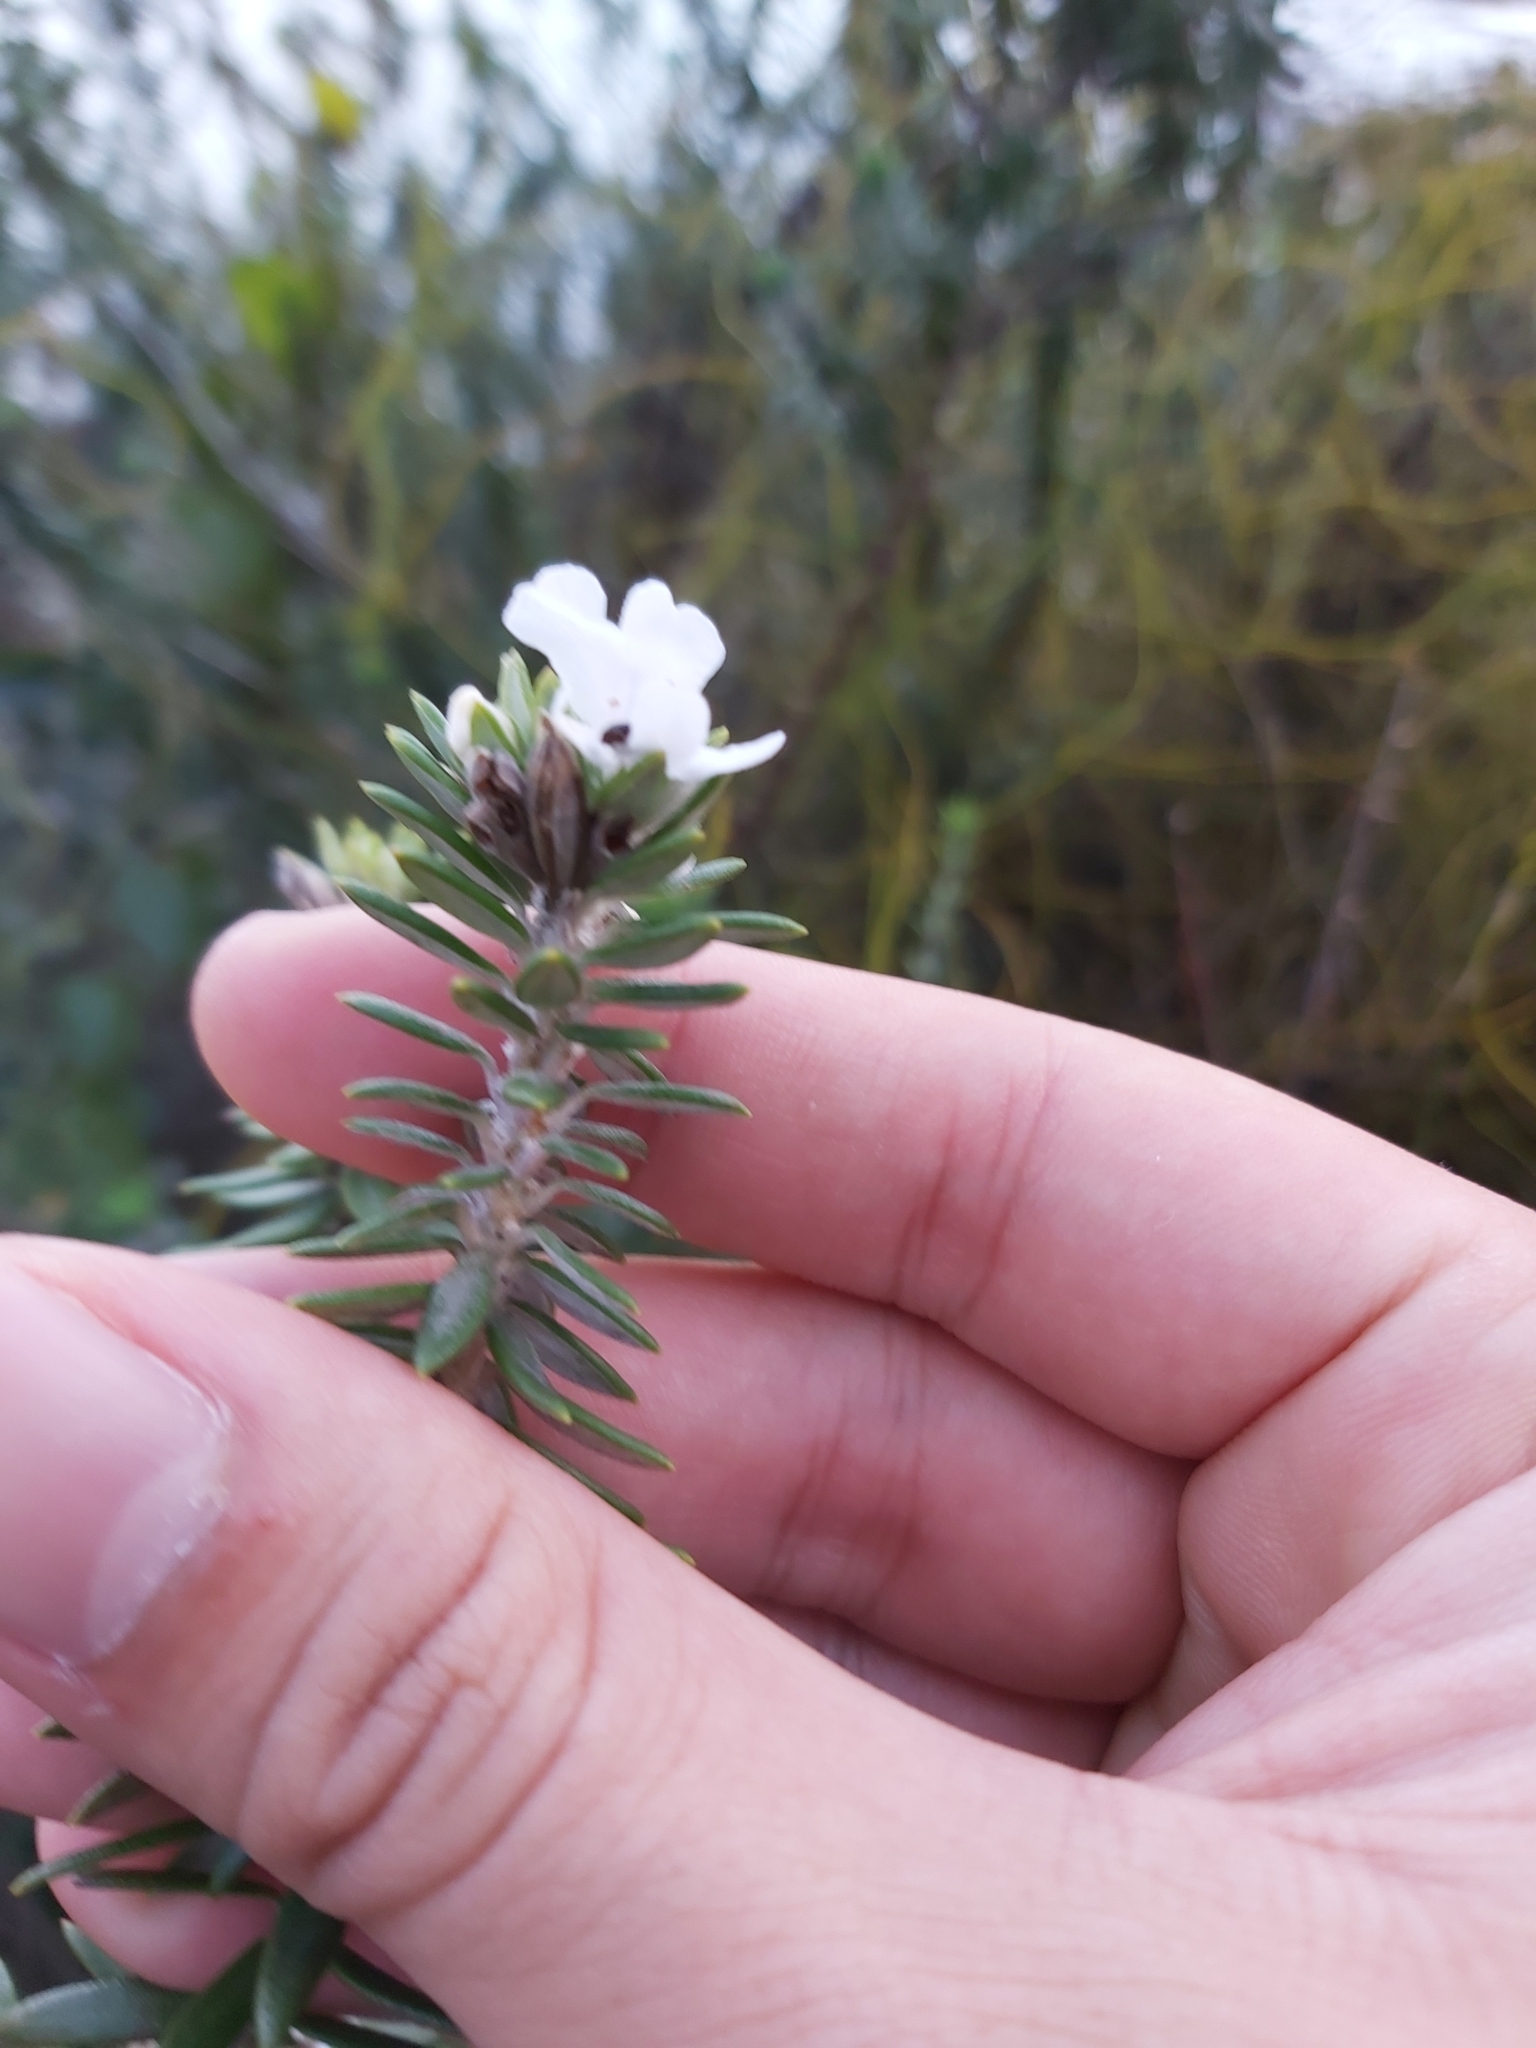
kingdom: Plantae
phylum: Tracheophyta
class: Magnoliopsida
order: Lamiales
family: Lamiaceae
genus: Westringia
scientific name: Westringia fruticosa
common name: Coastal-rosemary
